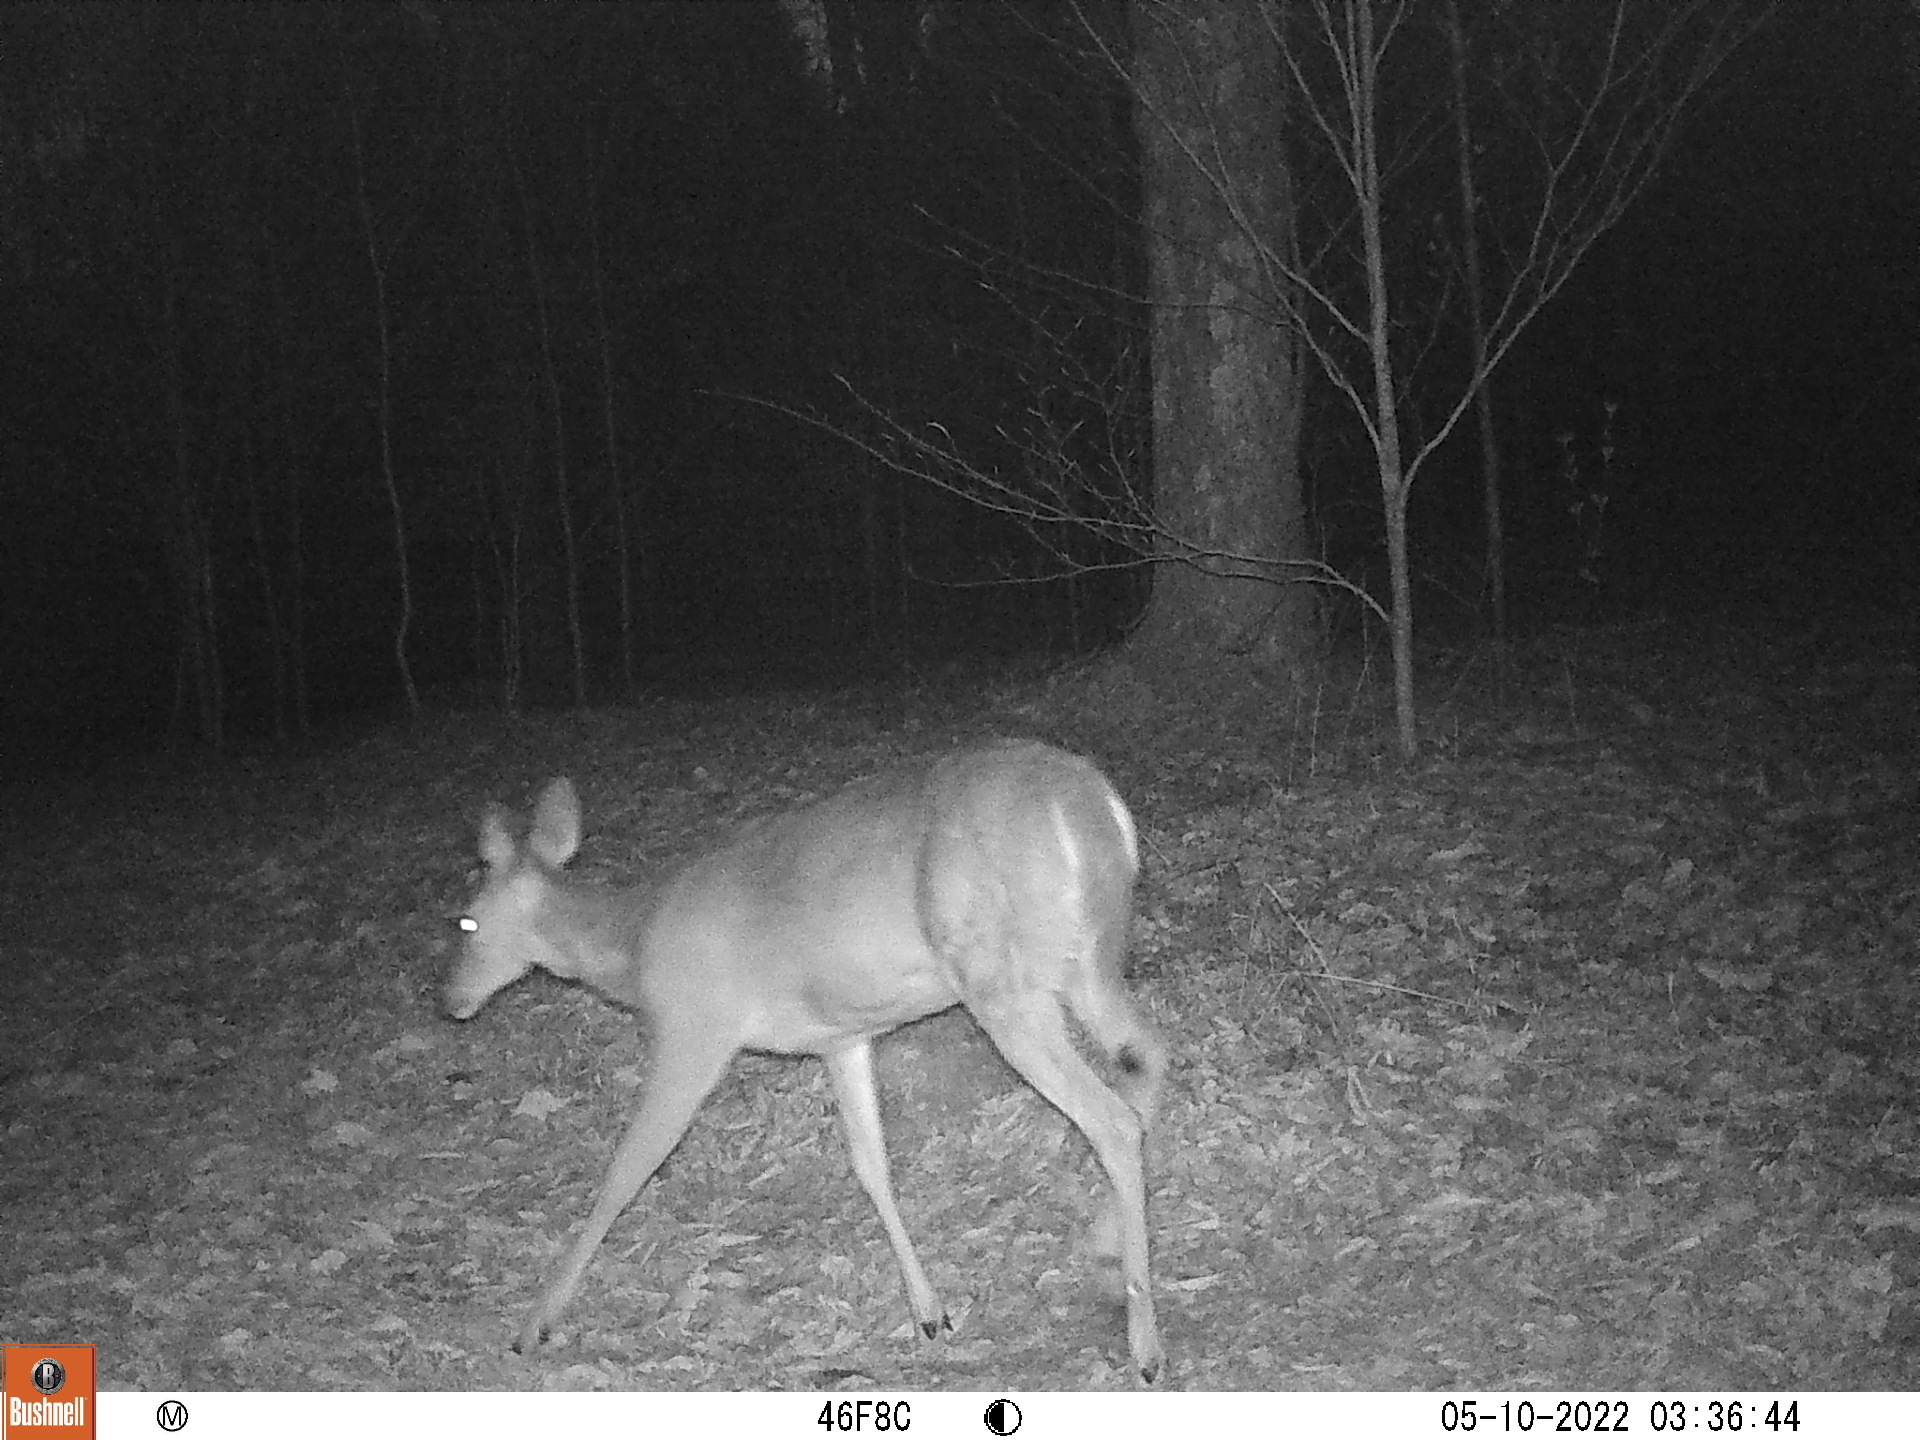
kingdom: Animalia
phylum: Chordata
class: Mammalia
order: Artiodactyla
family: Cervidae
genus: Odocoileus
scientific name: Odocoileus virginianus
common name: White-tailed deer
